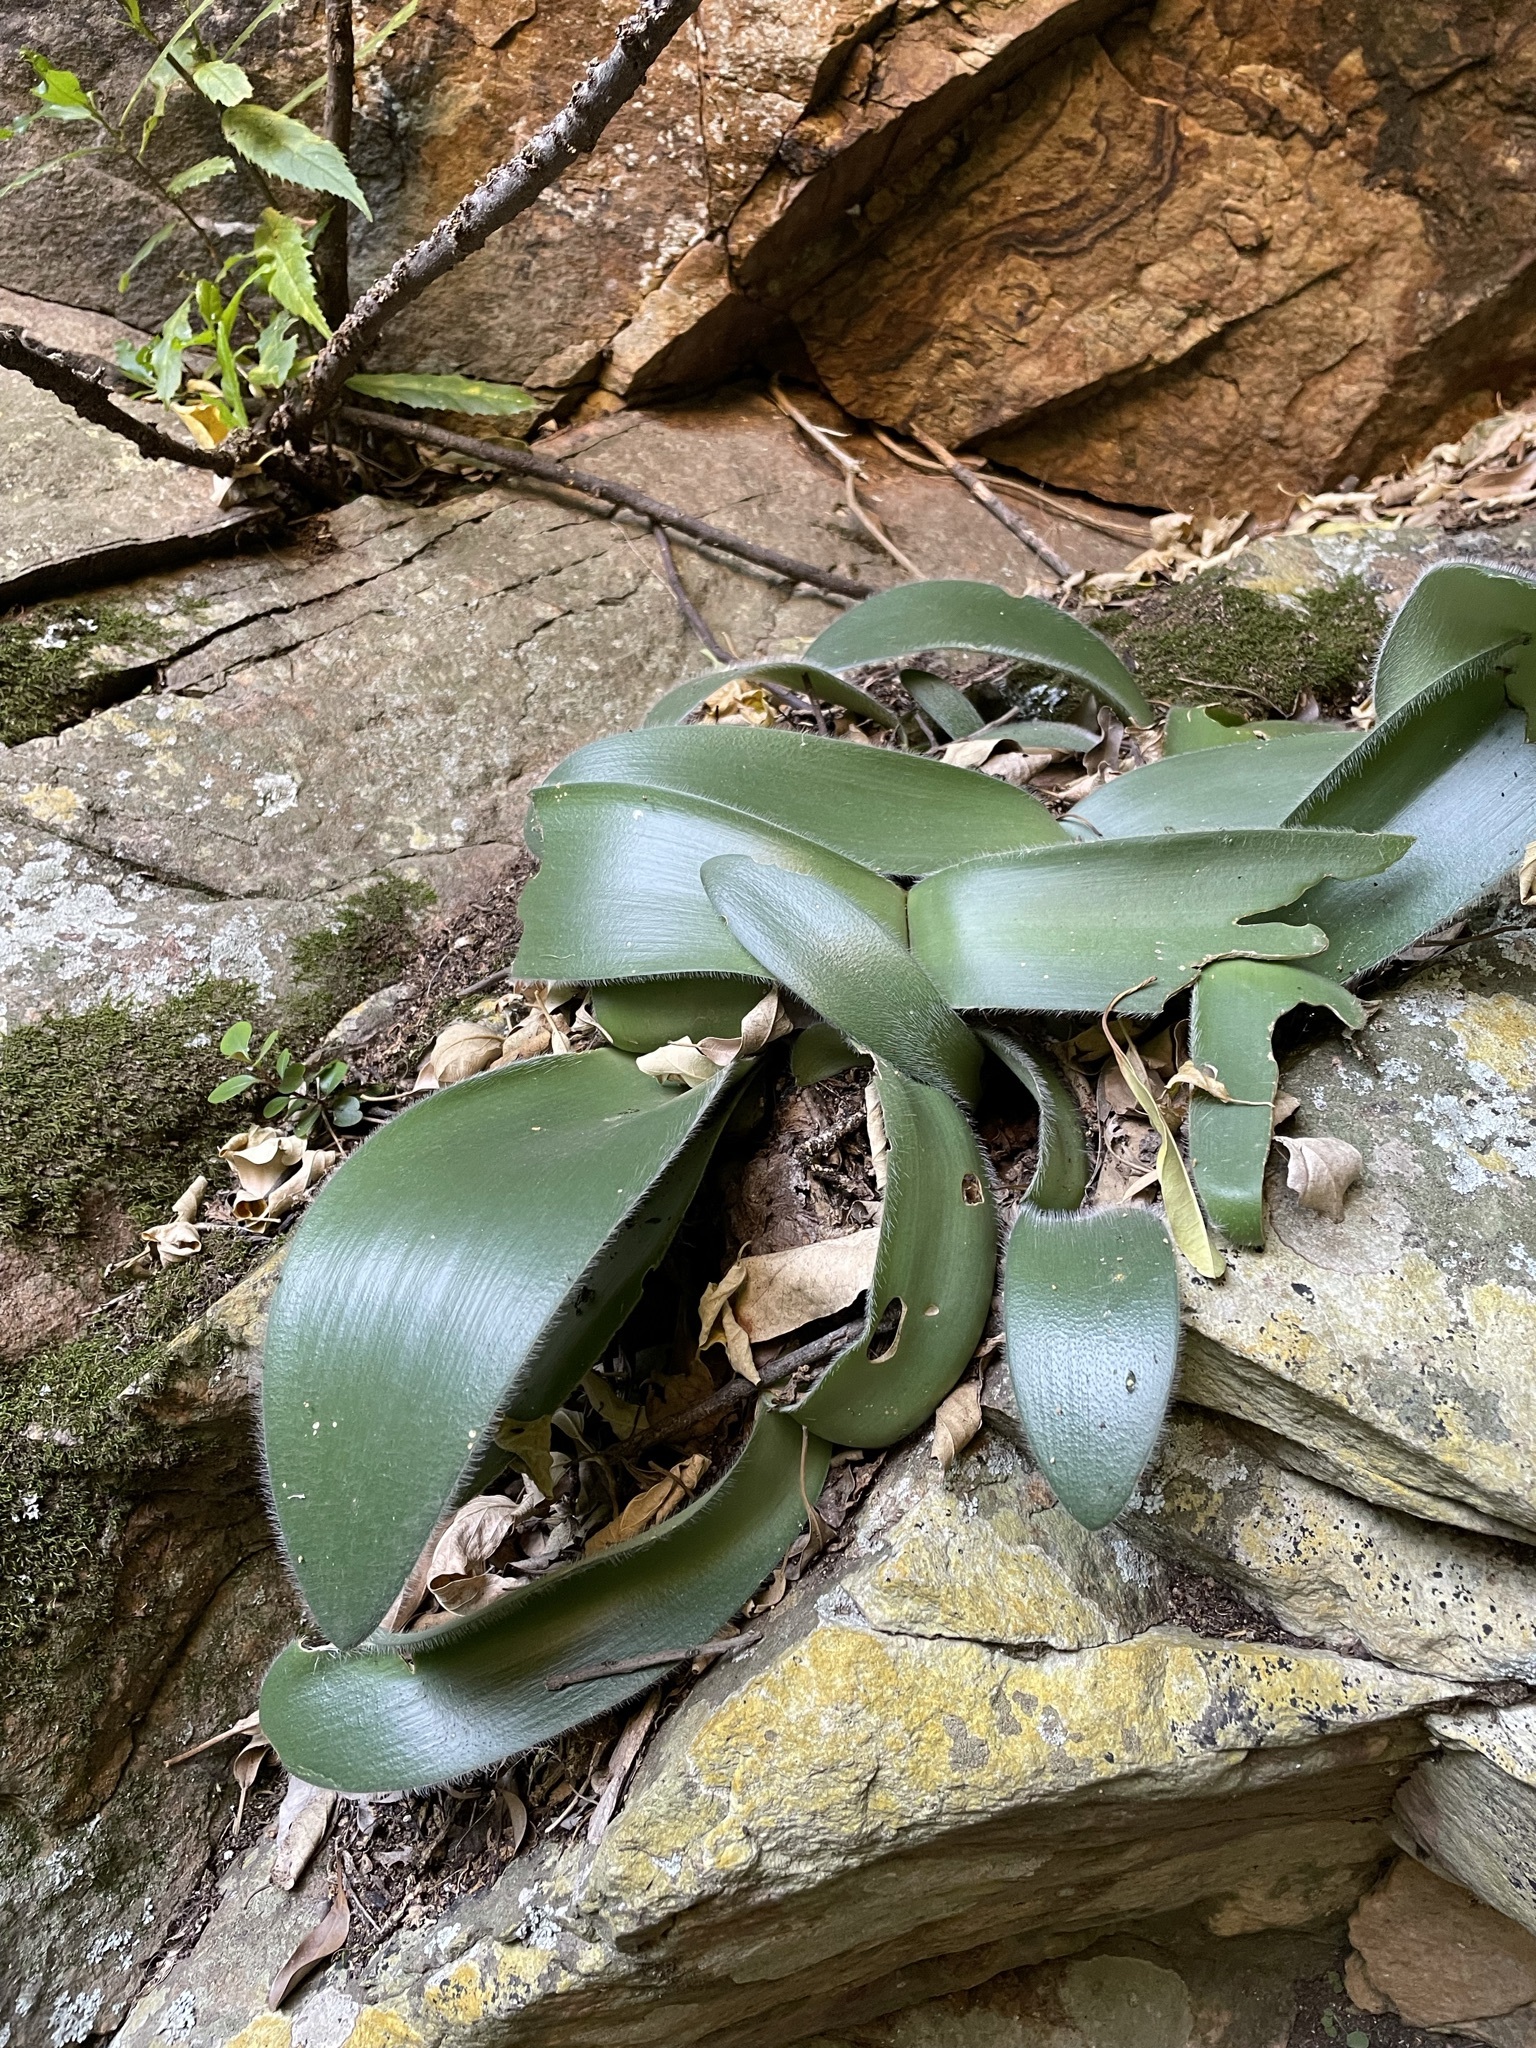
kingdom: Plantae
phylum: Tracheophyta
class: Liliopsida
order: Asparagales
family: Amaryllidaceae
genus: Haemanthus
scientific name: Haemanthus albiflos
